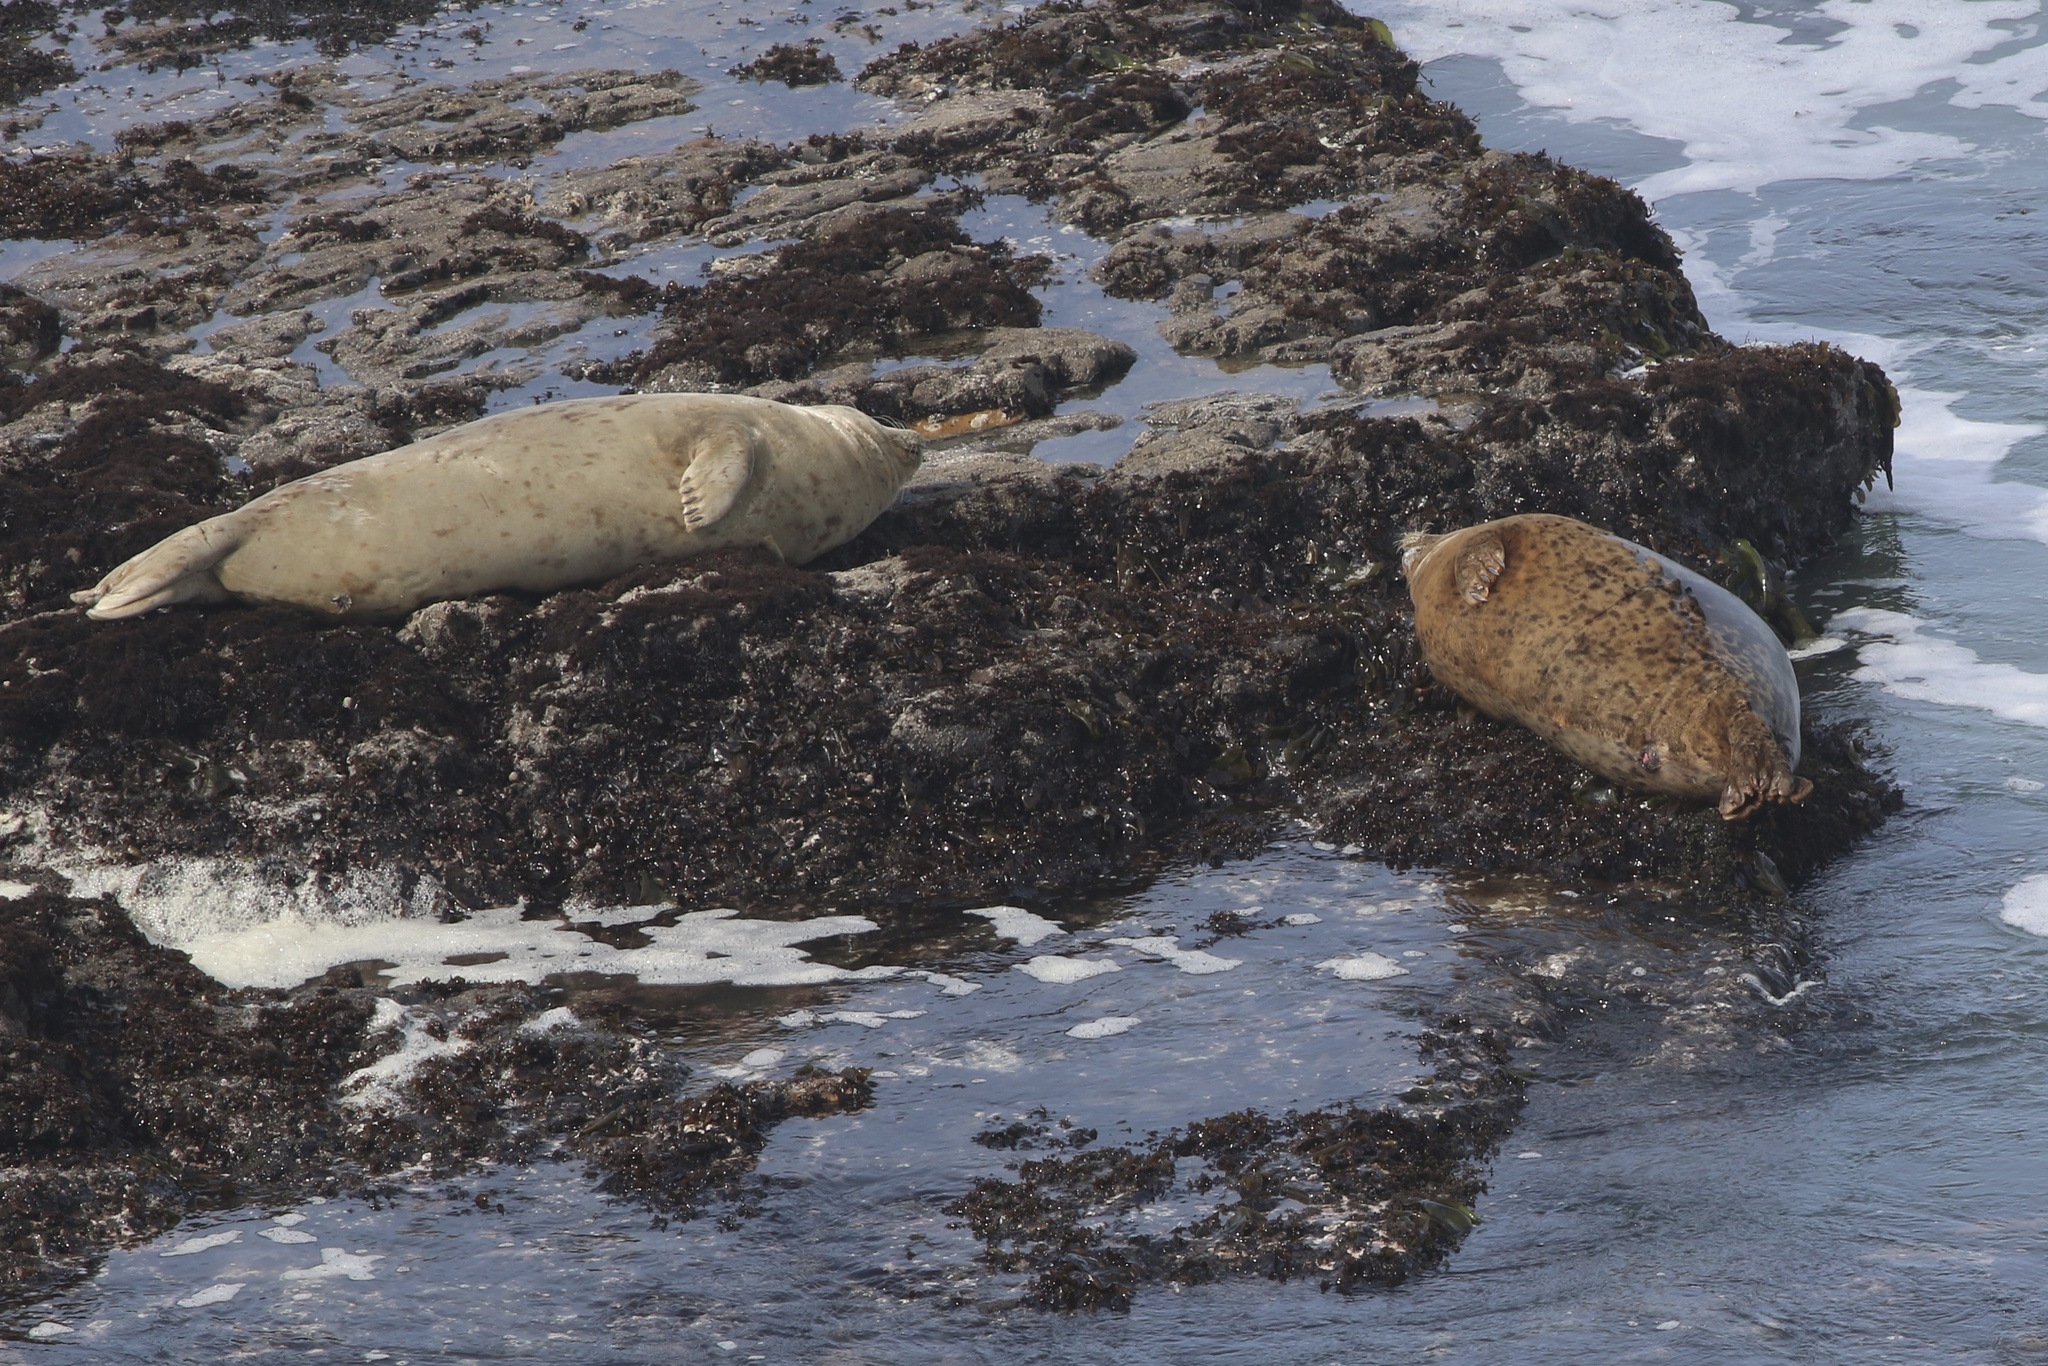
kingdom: Animalia
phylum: Chordata
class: Mammalia
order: Carnivora
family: Phocidae
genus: Phoca
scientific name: Phoca vitulina
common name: Harbor seal
